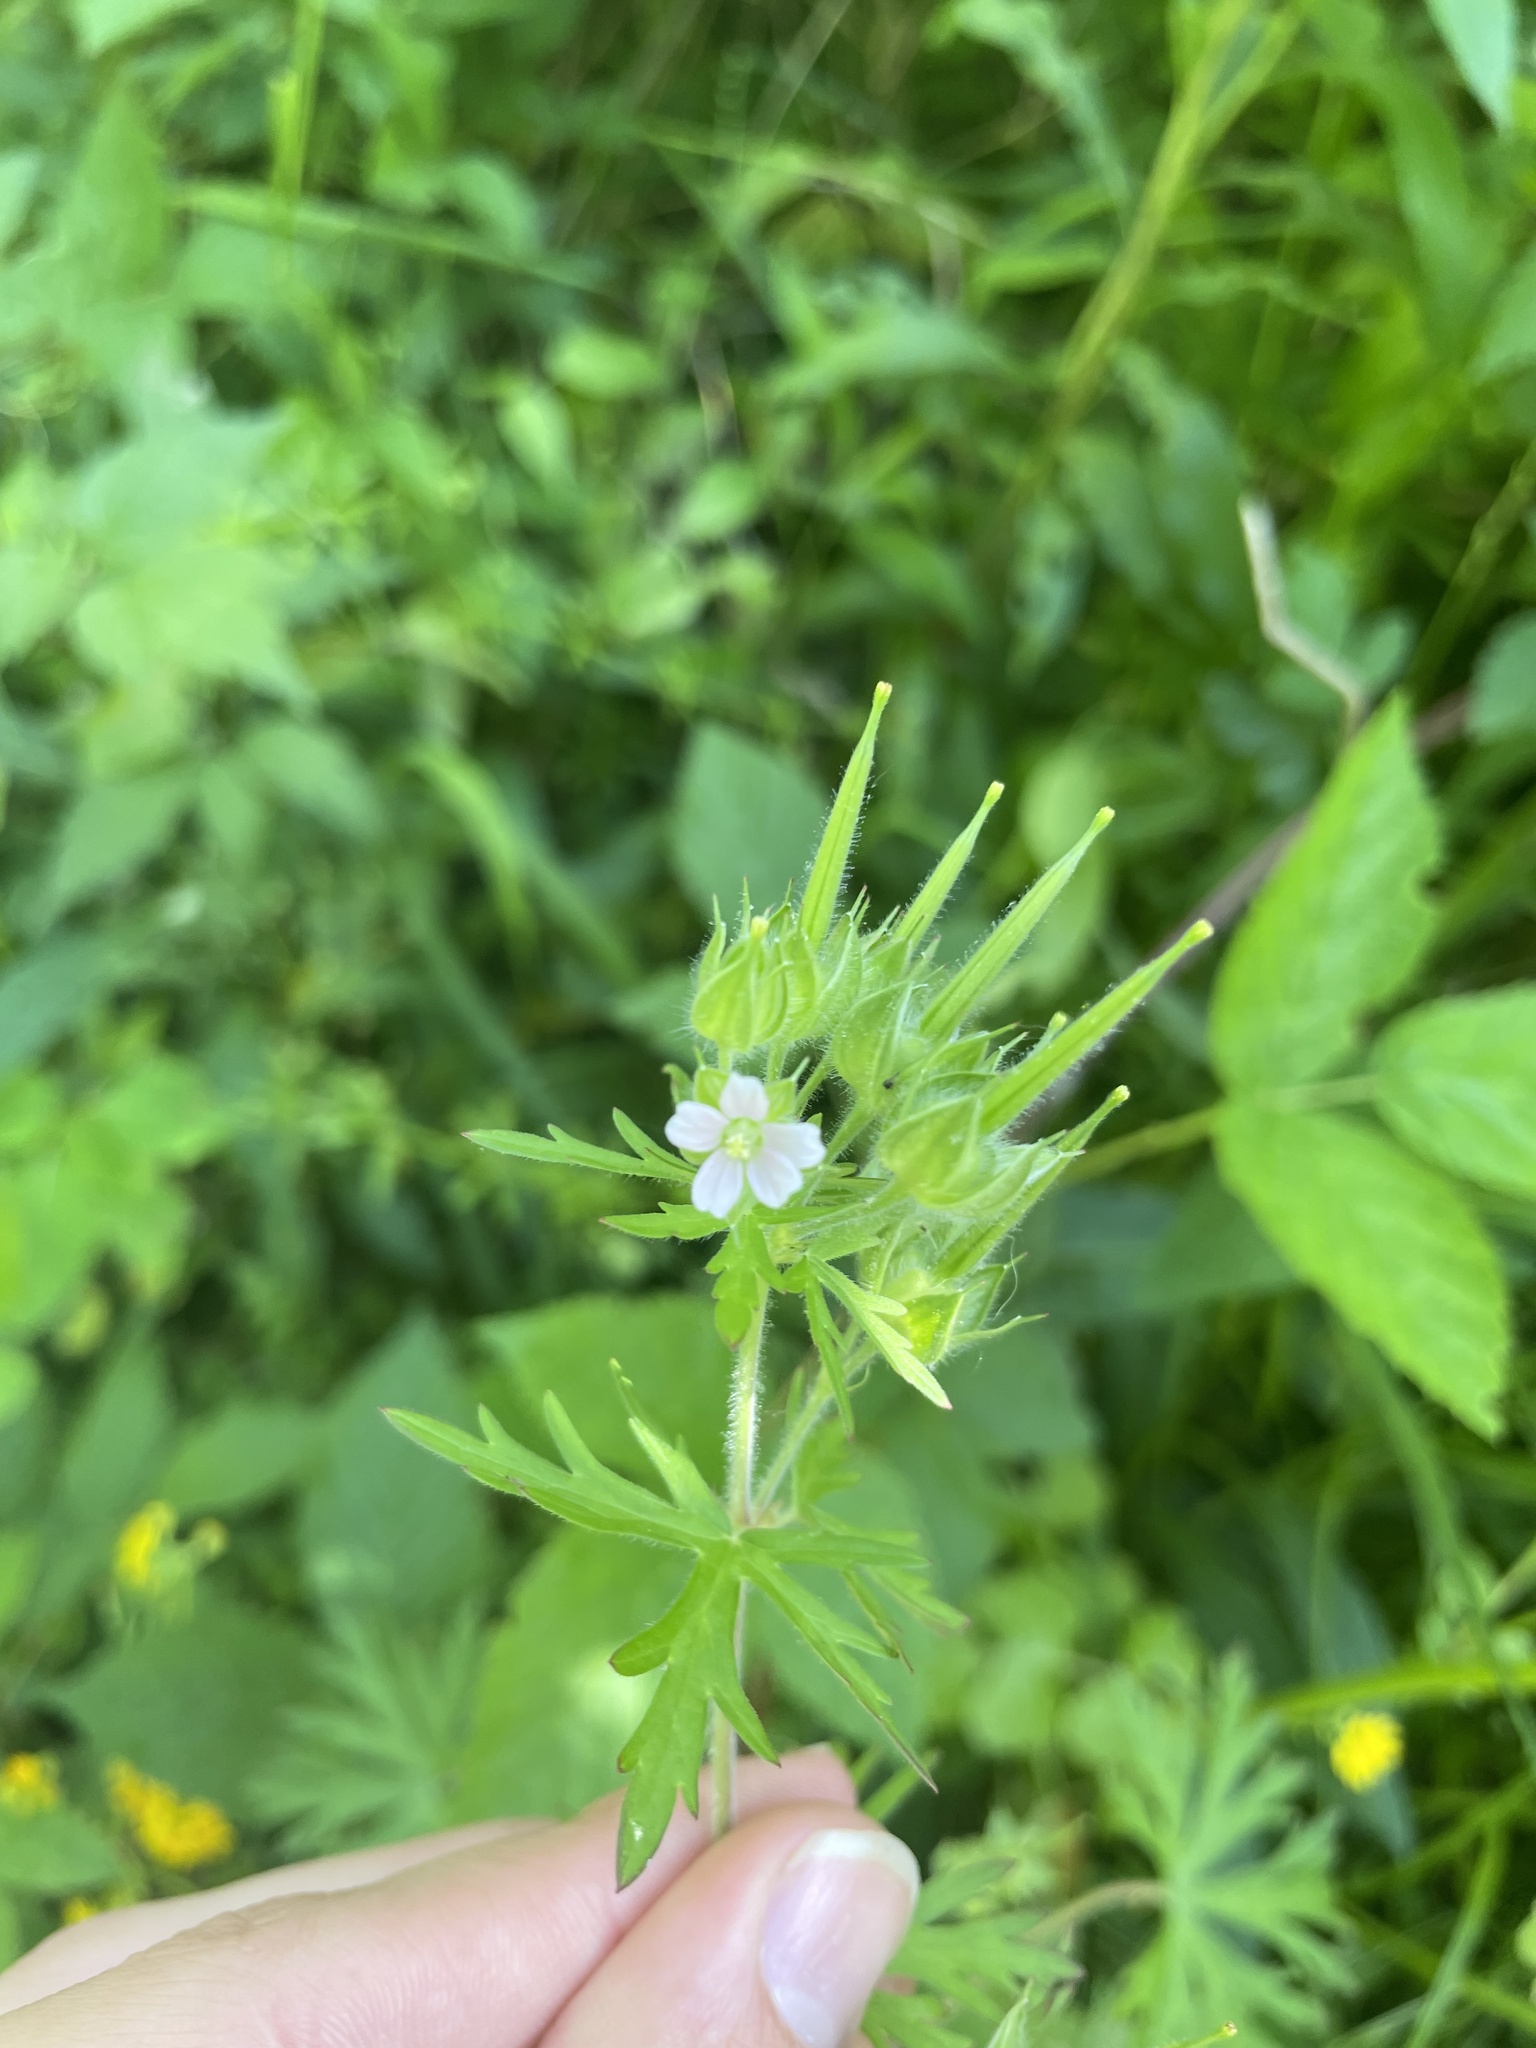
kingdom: Plantae
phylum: Tracheophyta
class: Magnoliopsida
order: Geraniales
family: Geraniaceae
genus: Geranium
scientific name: Geranium carolinianum
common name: Carolina crane's-bill
